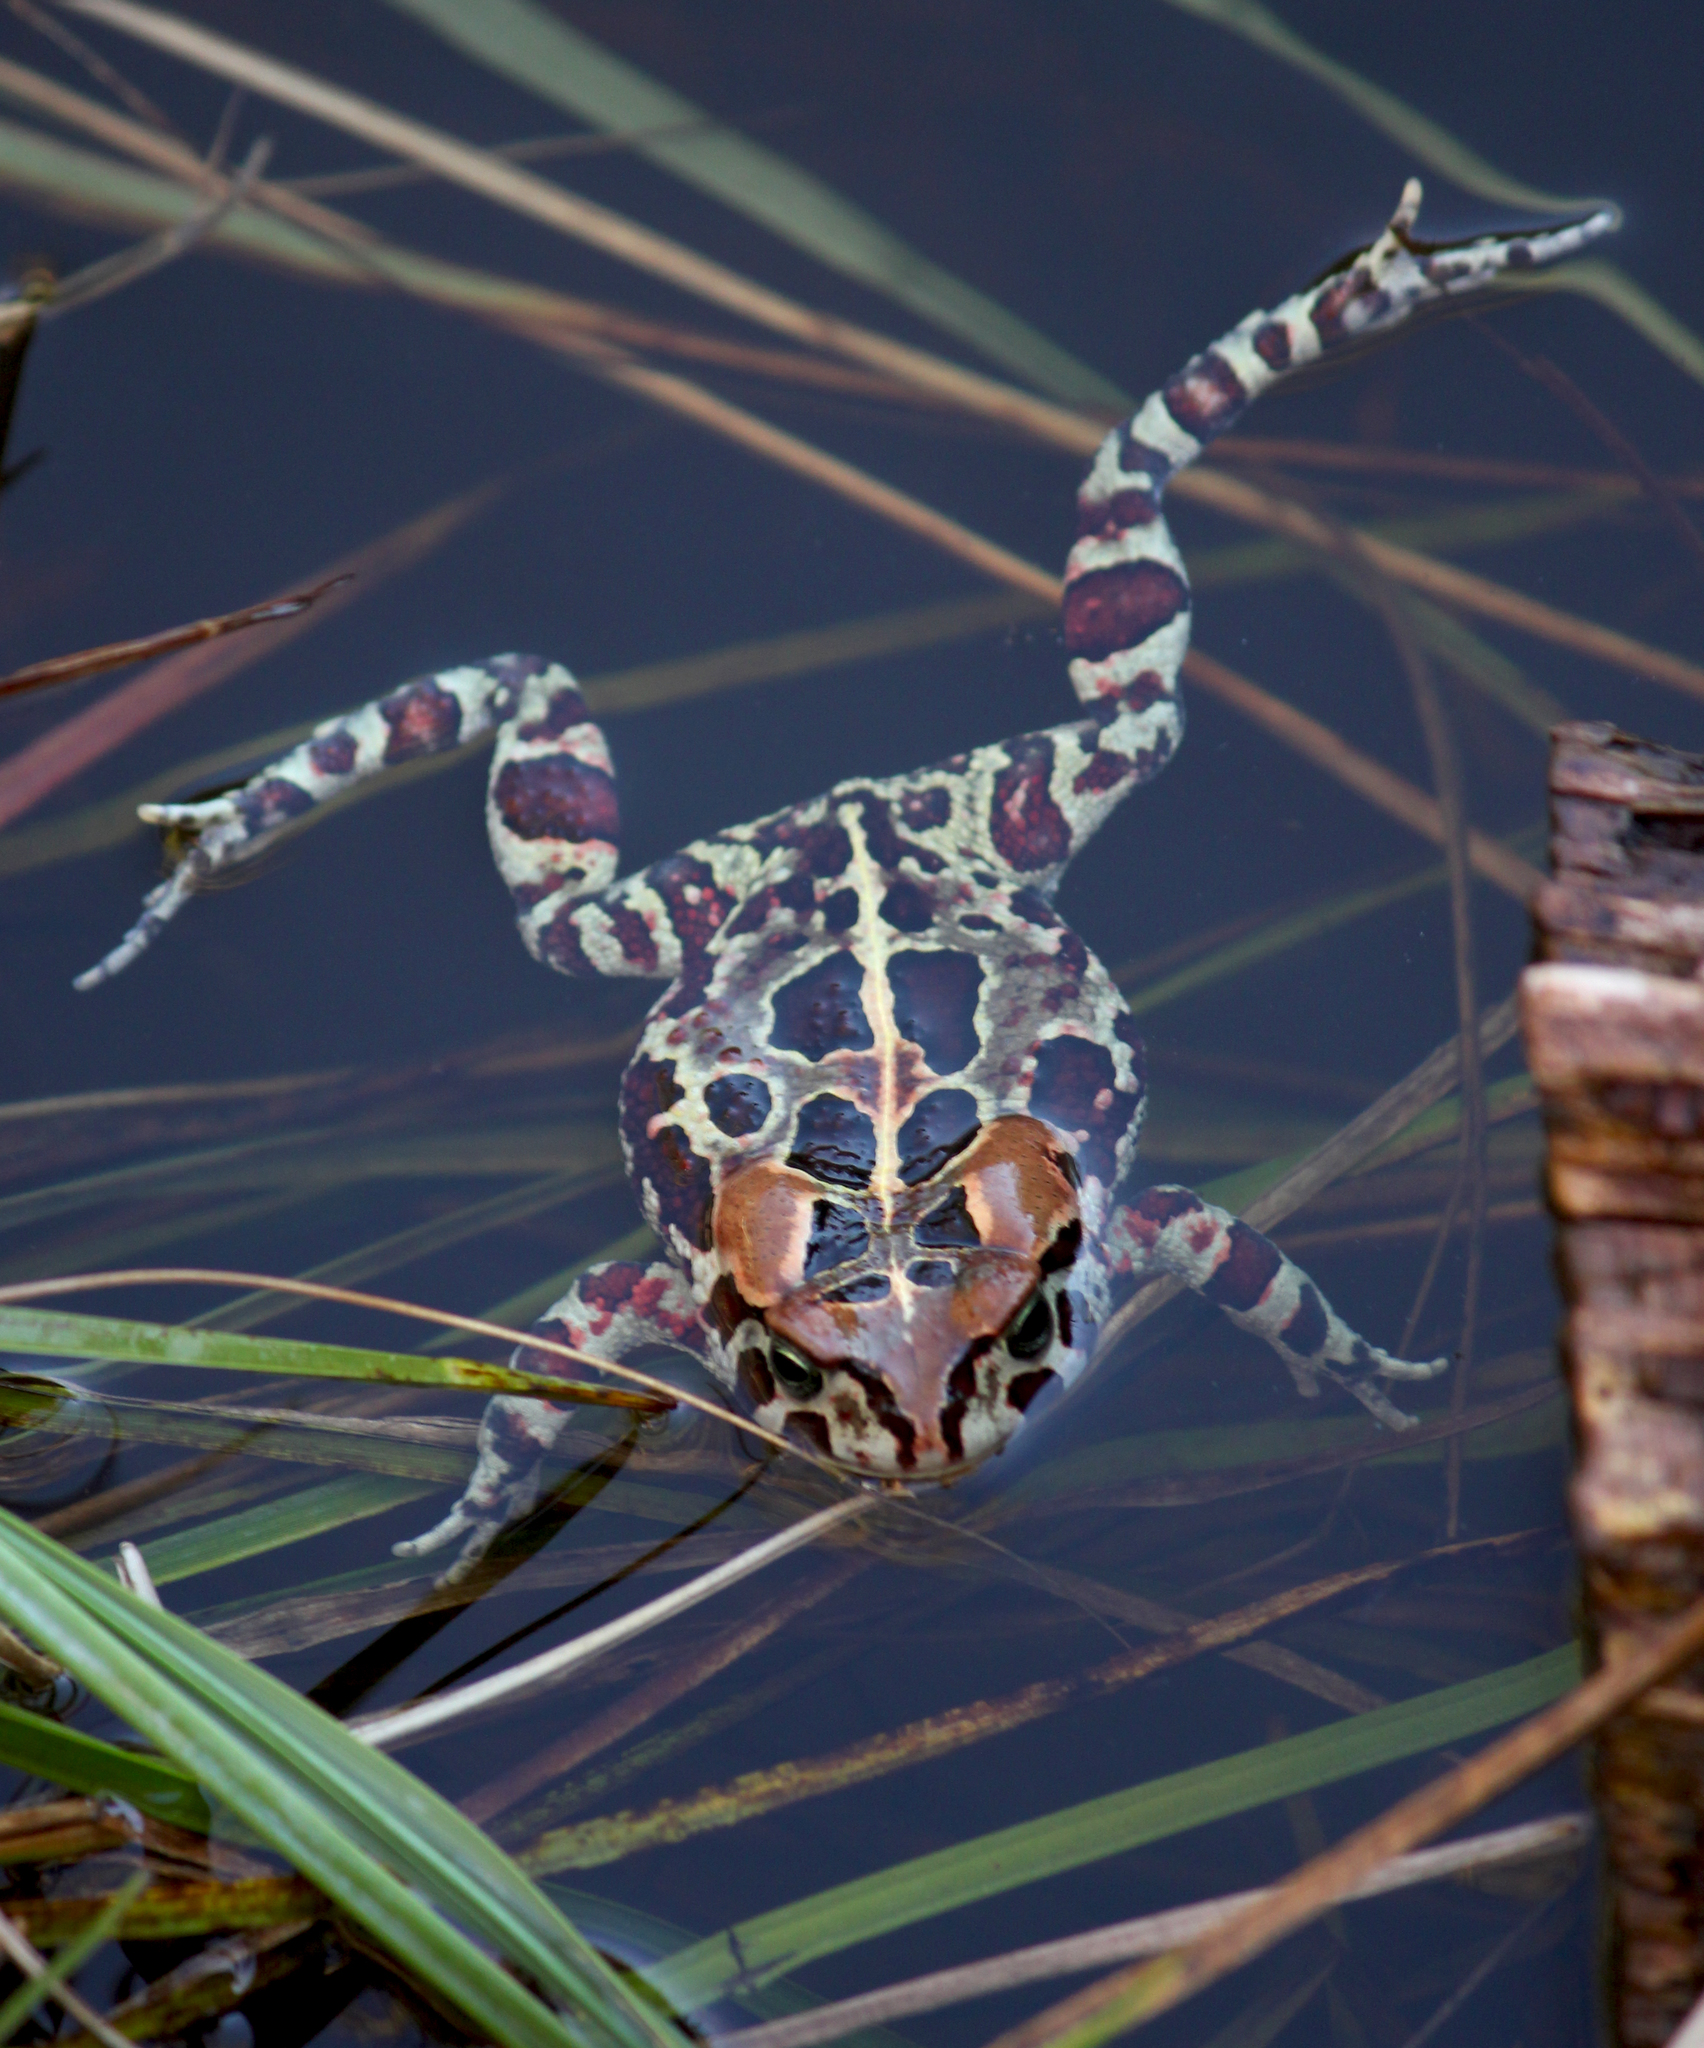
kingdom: Animalia
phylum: Chordata
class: Amphibia
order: Anura
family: Bufonidae
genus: Sclerophrys
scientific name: Sclerophrys pantherina
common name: Panther toad
